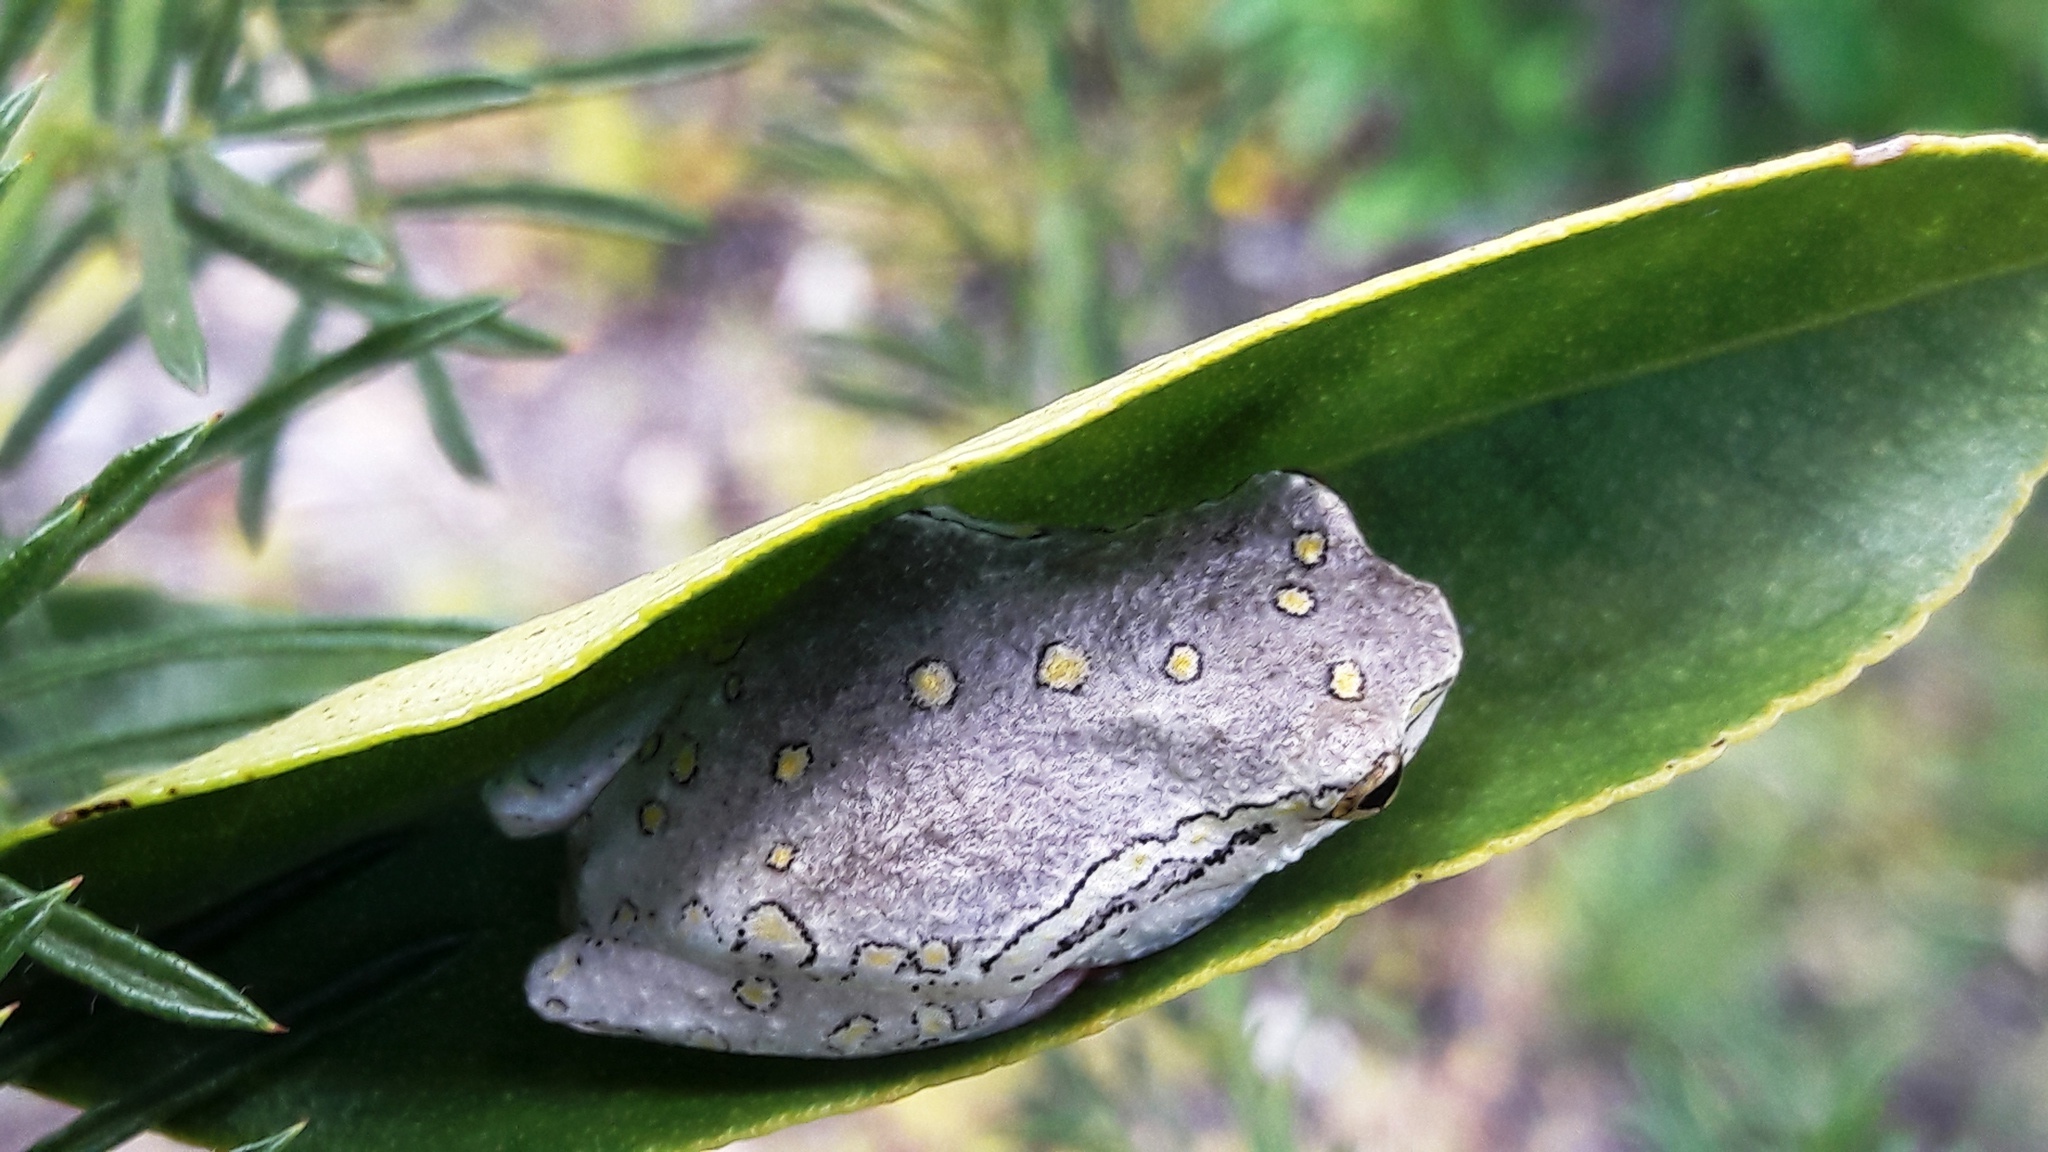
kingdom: Animalia
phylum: Chordata
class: Amphibia
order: Anura
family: Hyperoliidae
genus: Hyperolius
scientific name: Hyperolius marmoratus
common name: Painted reed frog
